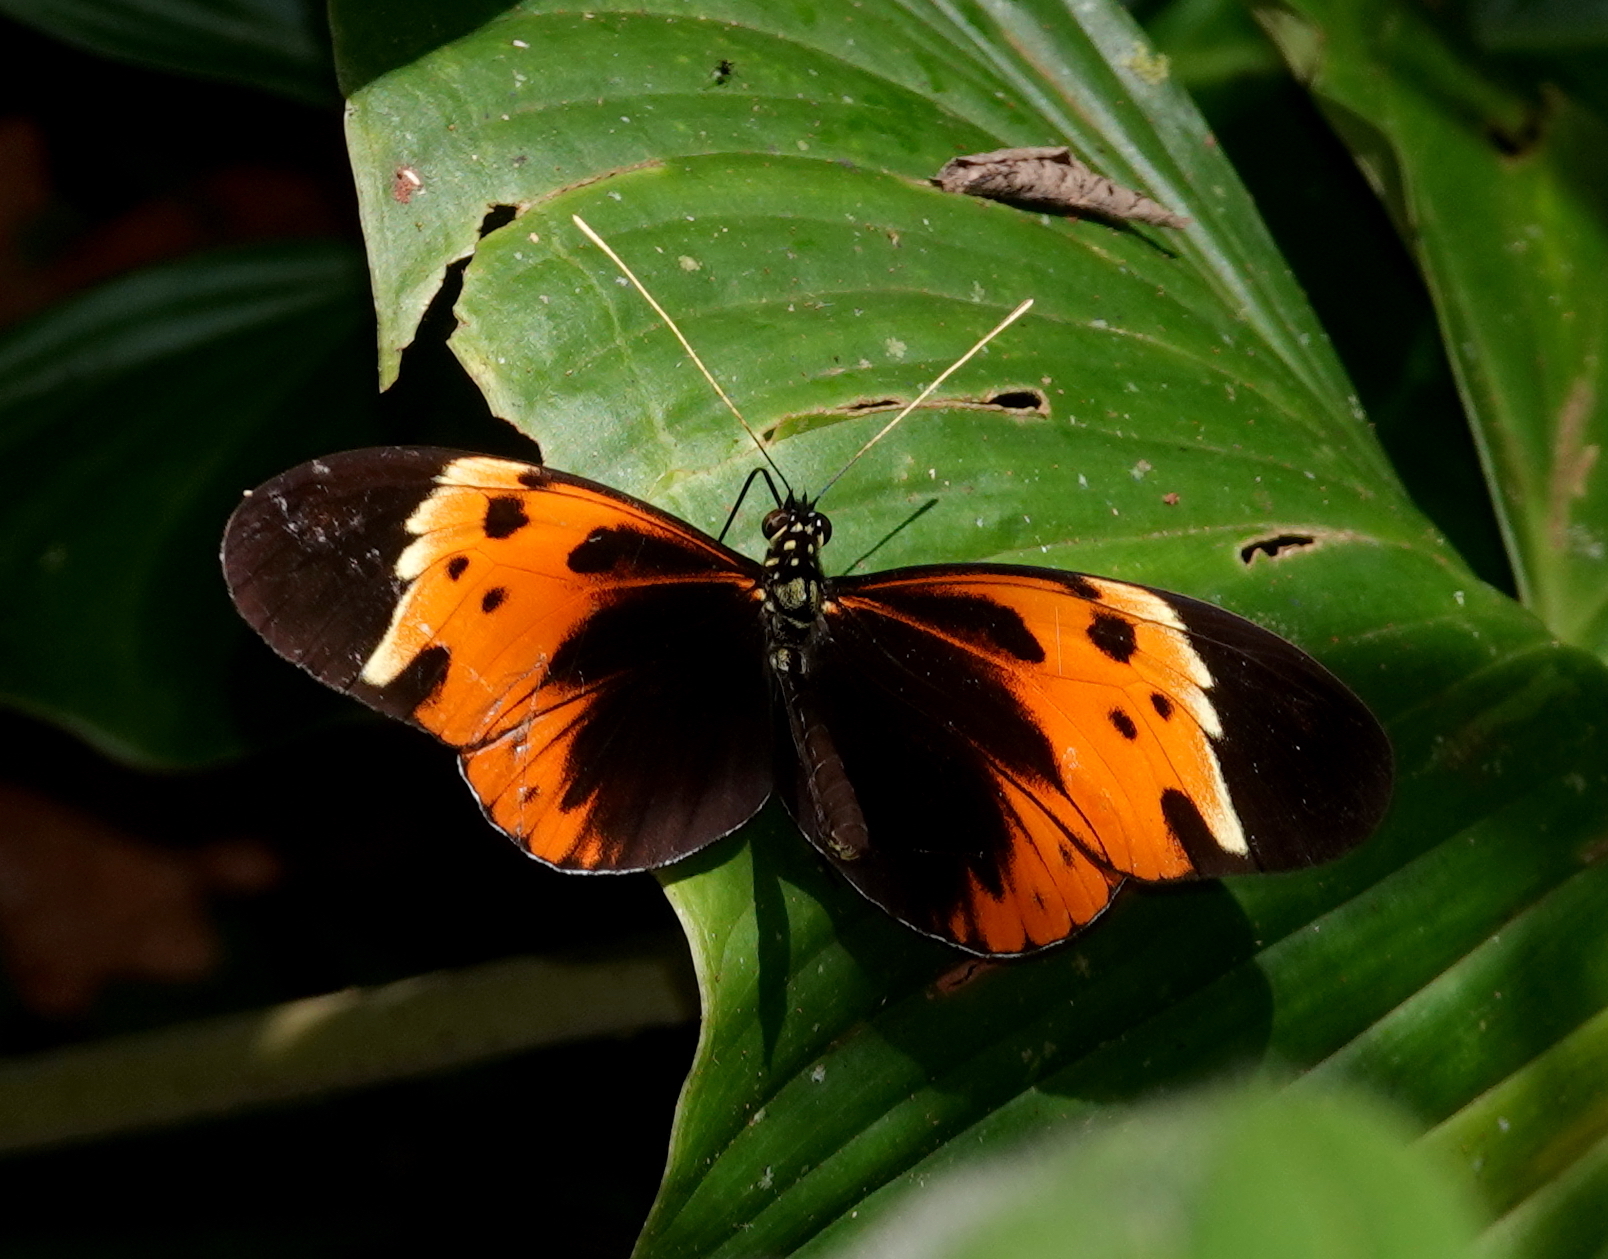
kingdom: Animalia
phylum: Arthropoda
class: Insecta
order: Lepidoptera
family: Nymphalidae
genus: Heliconius
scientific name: Heliconius numatus
